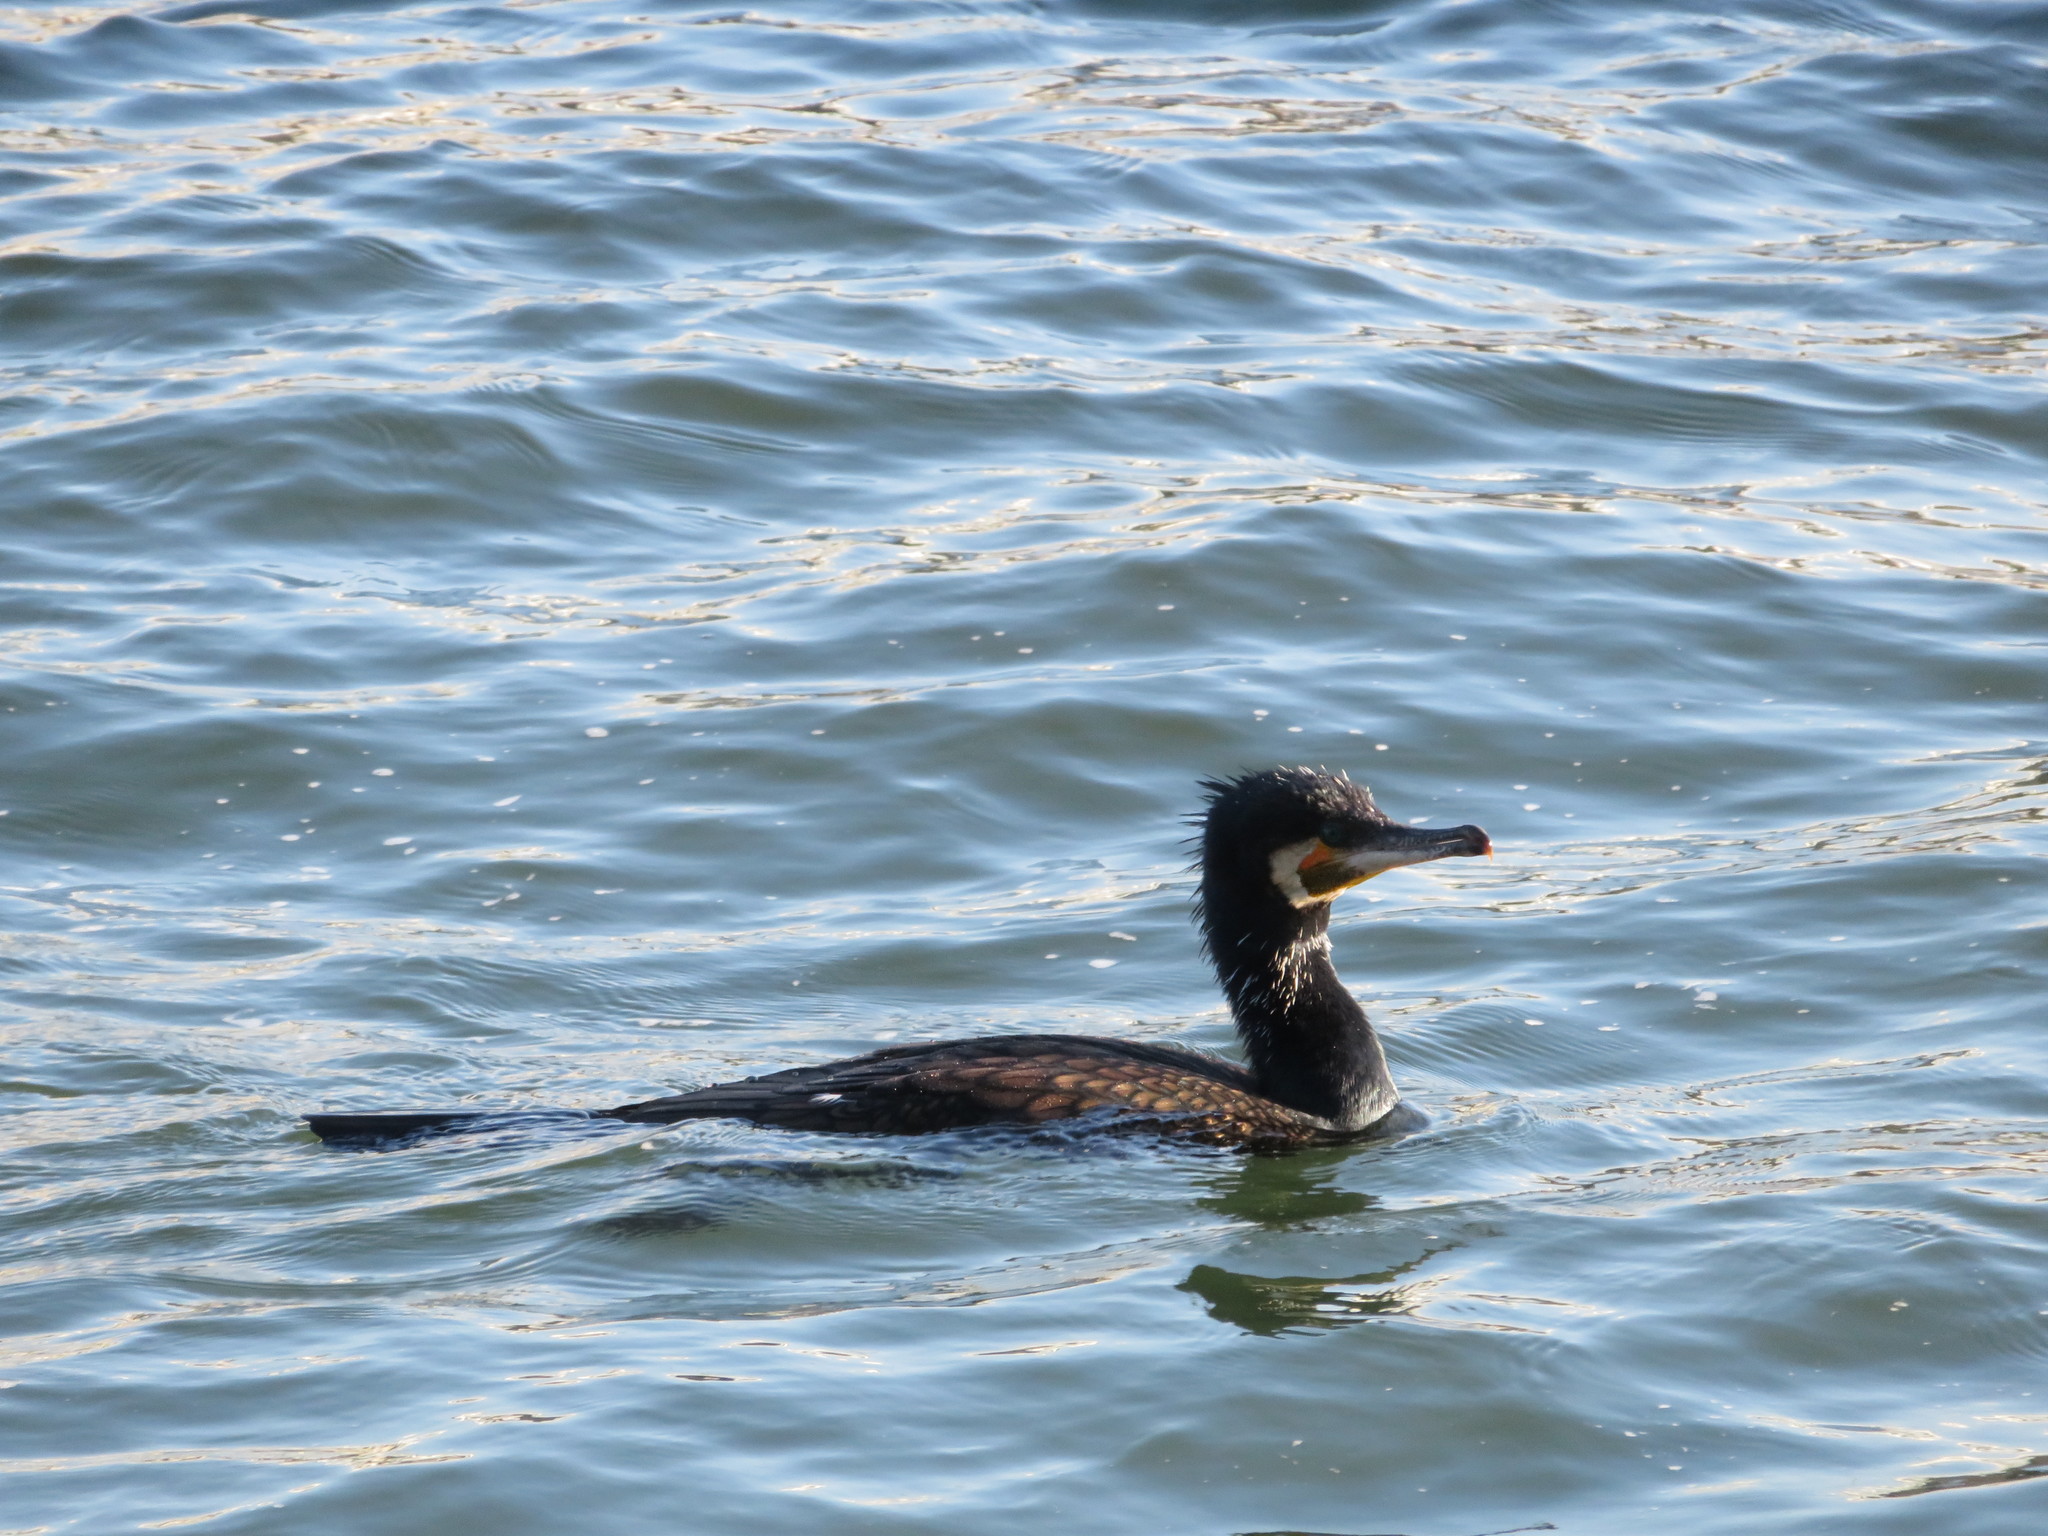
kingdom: Animalia
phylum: Chordata
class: Aves
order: Suliformes
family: Phalacrocoracidae
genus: Phalacrocorax
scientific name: Phalacrocorax carbo
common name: Great cormorant
